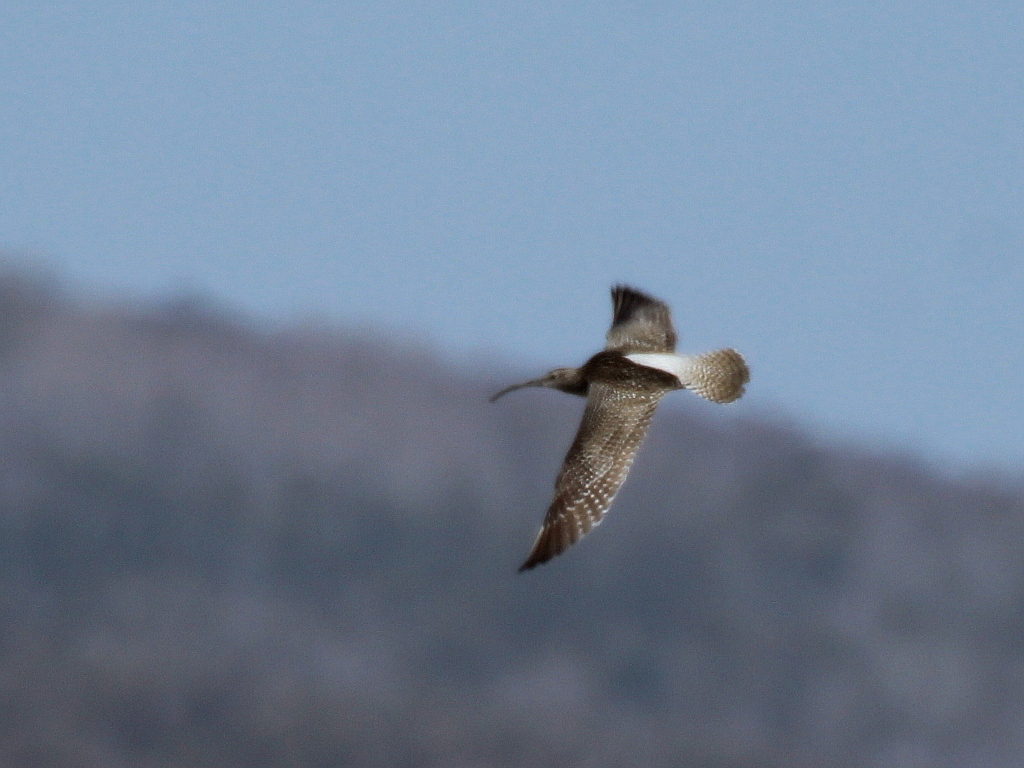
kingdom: Animalia
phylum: Chordata
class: Aves
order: Charadriiformes
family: Scolopacidae
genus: Numenius
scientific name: Numenius phaeopus
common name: Whimbrel
